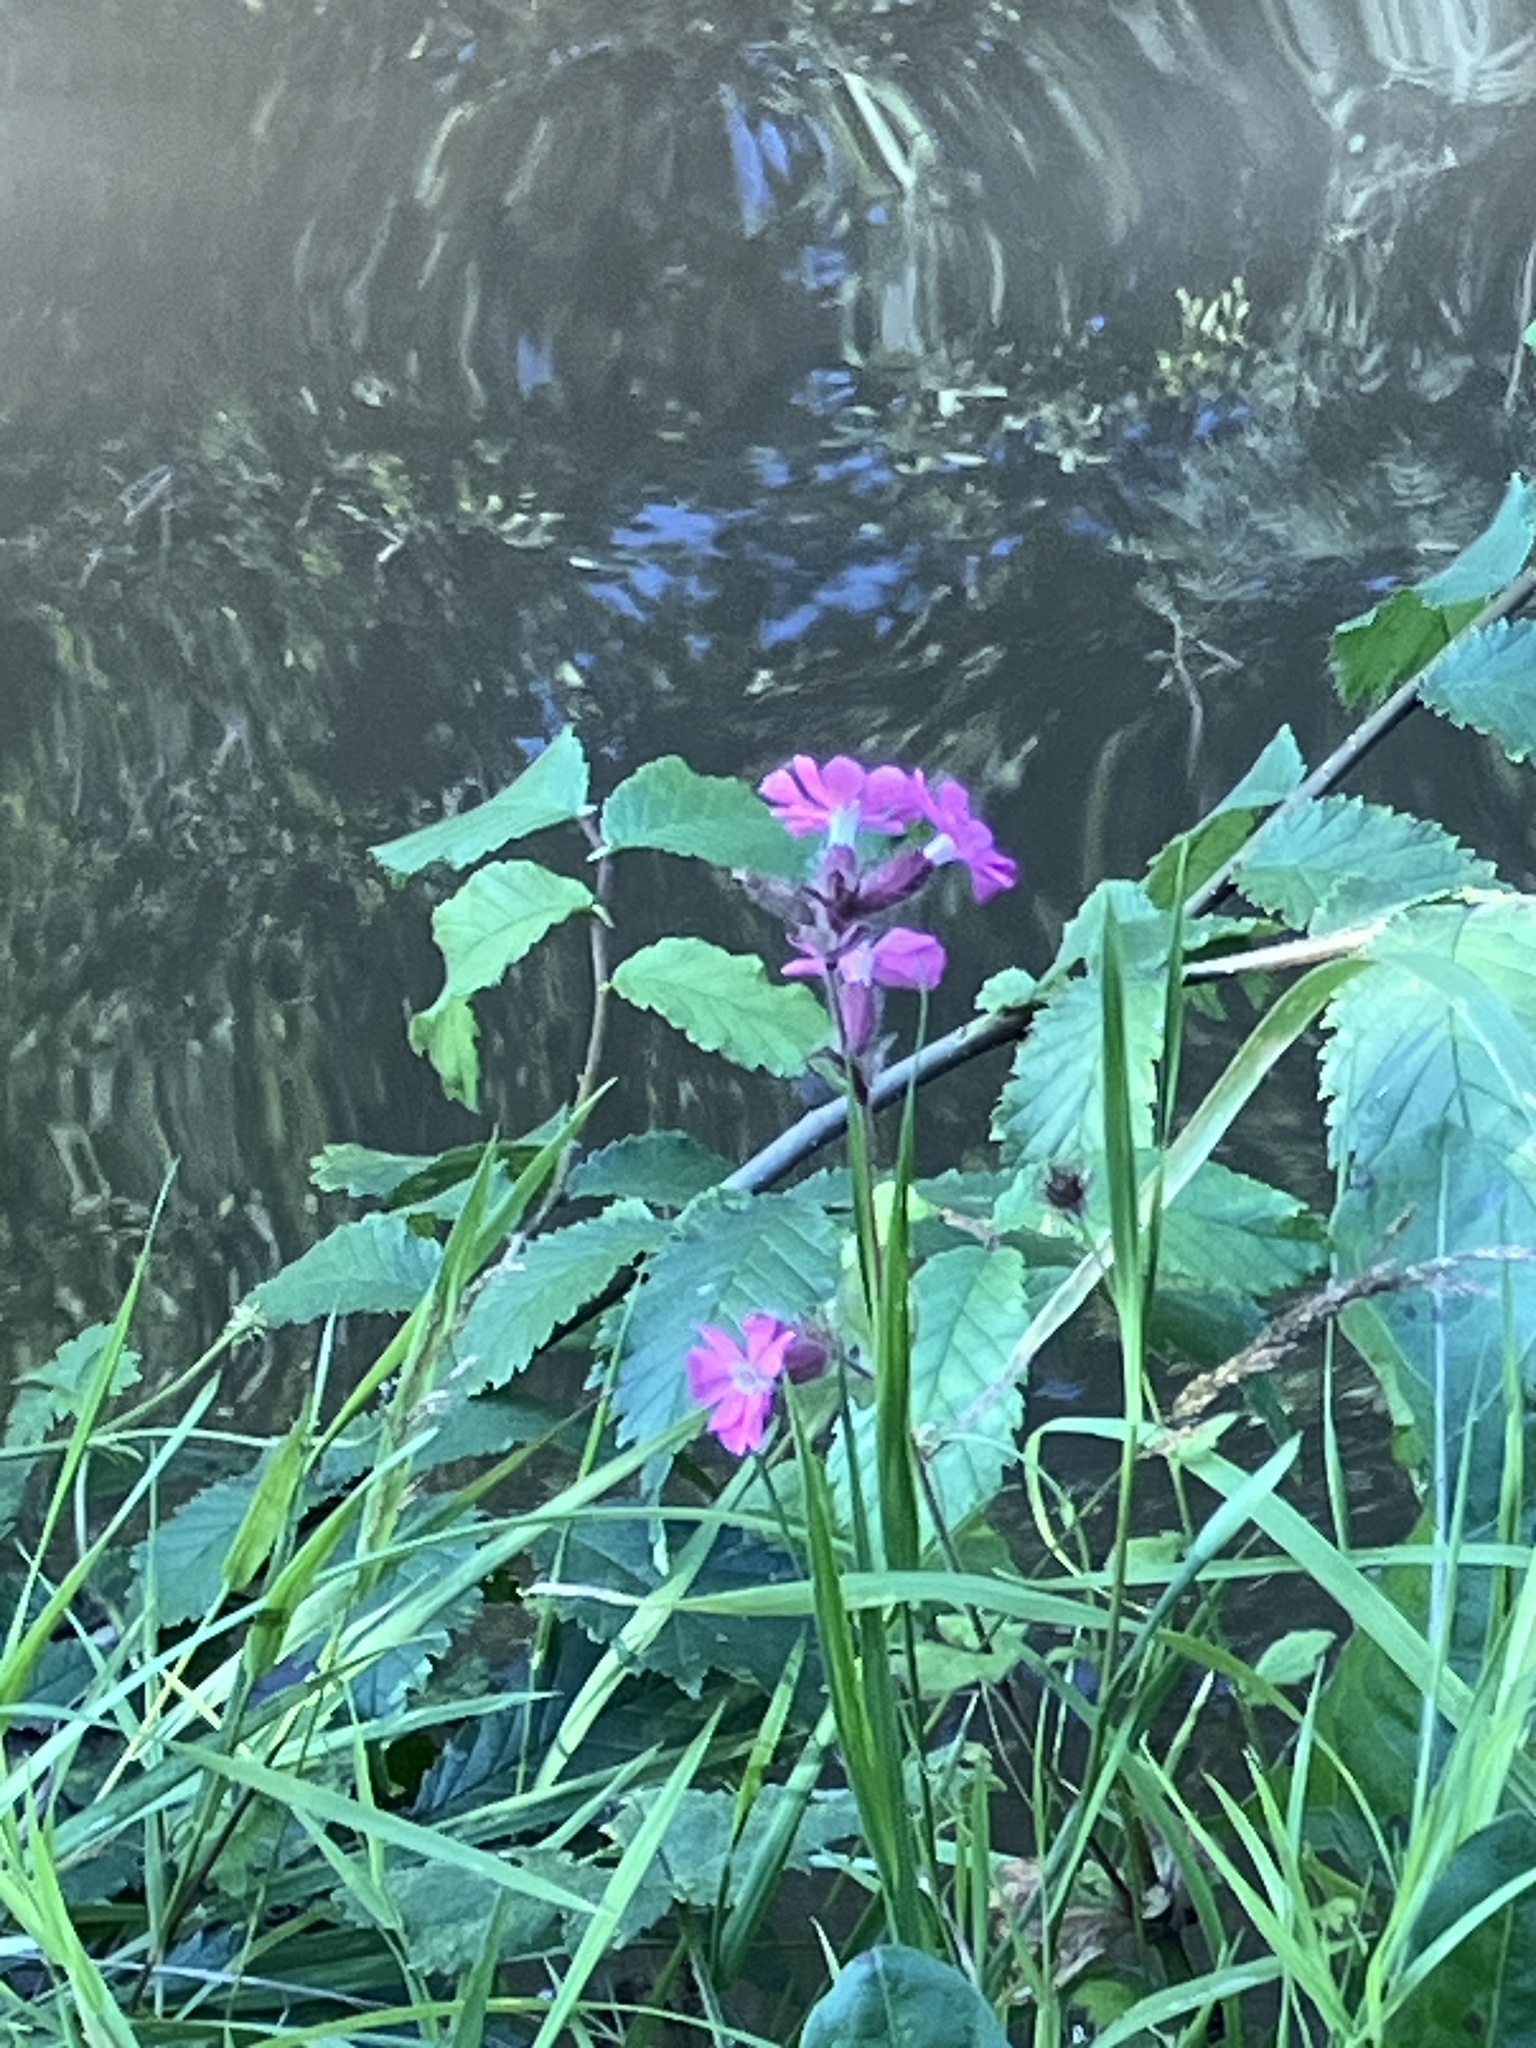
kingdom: Plantae
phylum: Tracheophyta
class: Magnoliopsida
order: Caryophyllales
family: Caryophyllaceae
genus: Silene
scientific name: Silene dioica
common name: Red campion
